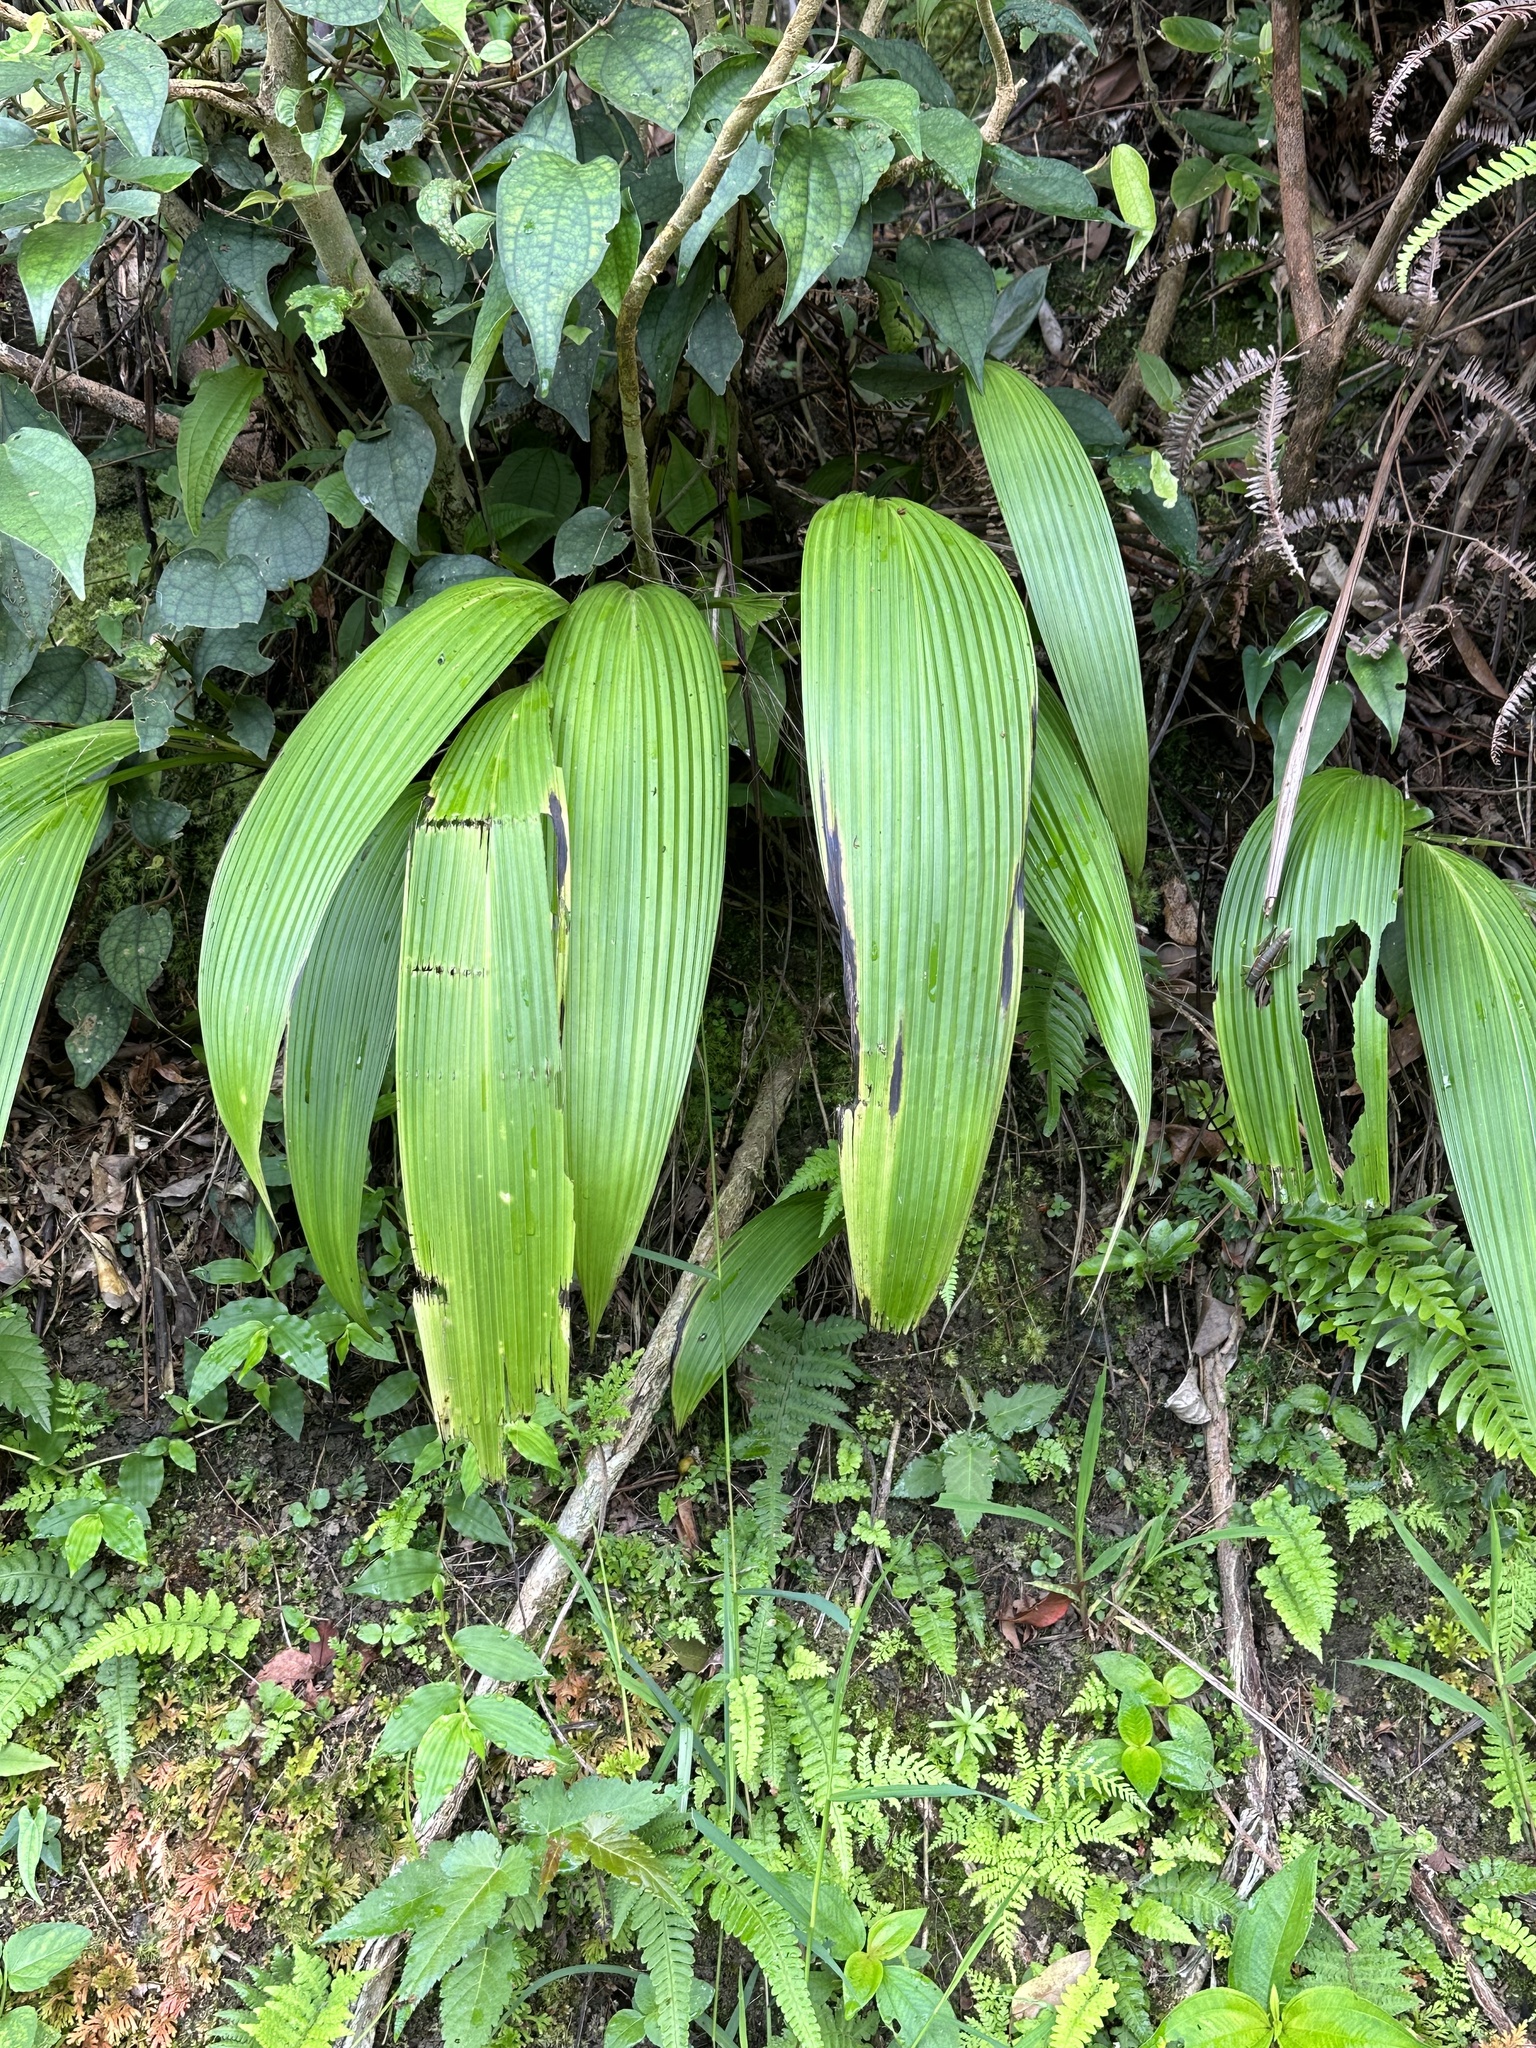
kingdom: Plantae
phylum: Tracheophyta
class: Liliopsida
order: Asparagales
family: Hypoxidaceae
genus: Curculigo
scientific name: Curculigo capitulata
